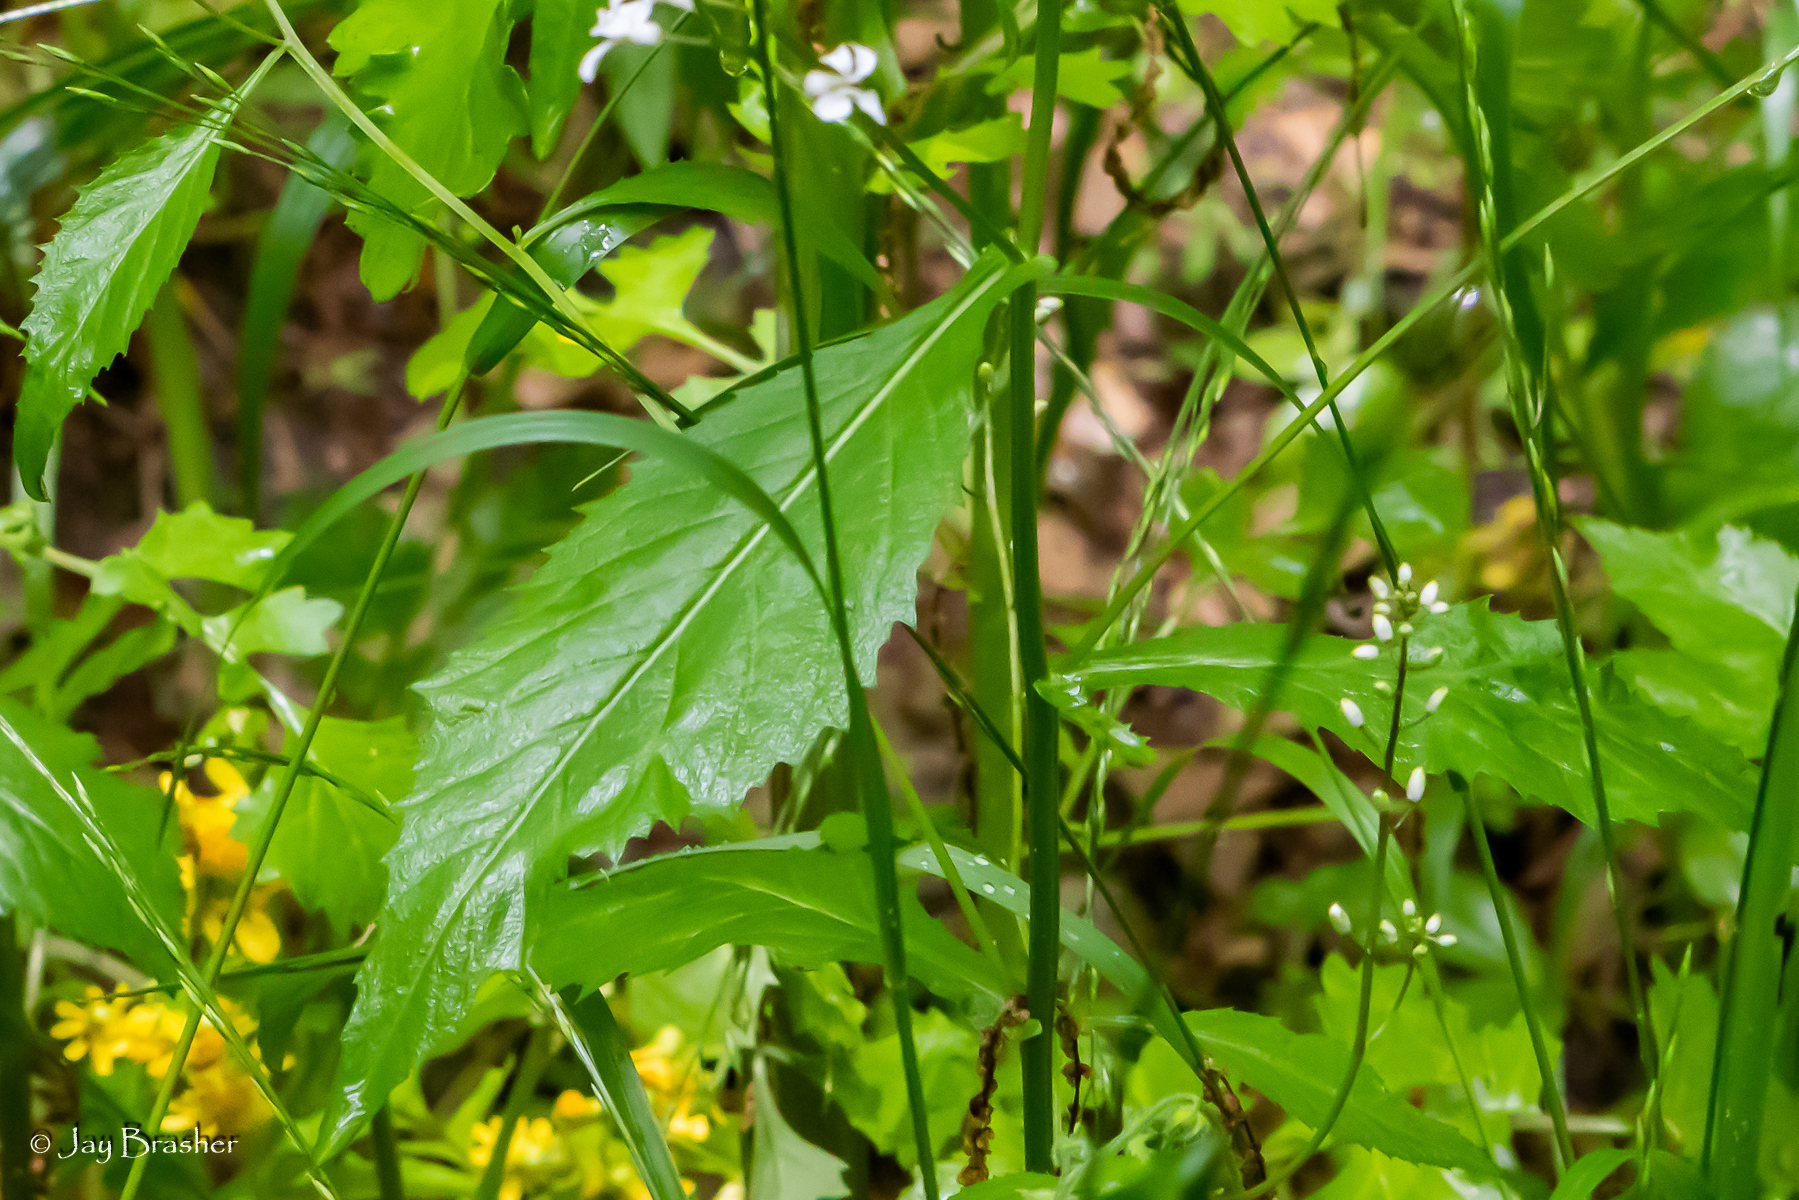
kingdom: Plantae
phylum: Tracheophyta
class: Magnoliopsida
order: Brassicales
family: Brassicaceae
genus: Iodanthus
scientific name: Iodanthus pinnatifidus
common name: Violet rocket
